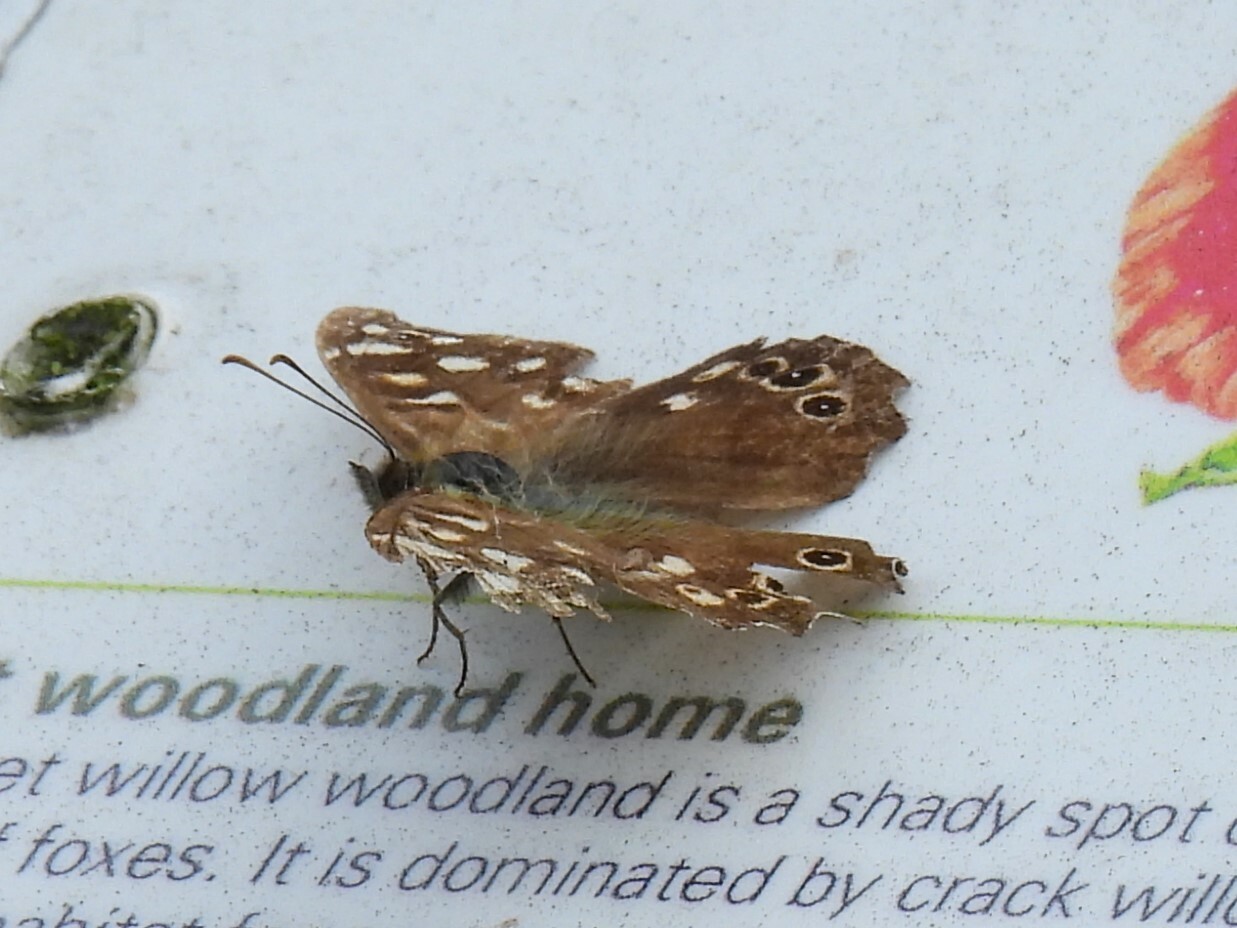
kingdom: Animalia
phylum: Arthropoda
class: Insecta
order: Lepidoptera
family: Nymphalidae
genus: Pararge
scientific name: Pararge aegeria
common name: Speckled wood
